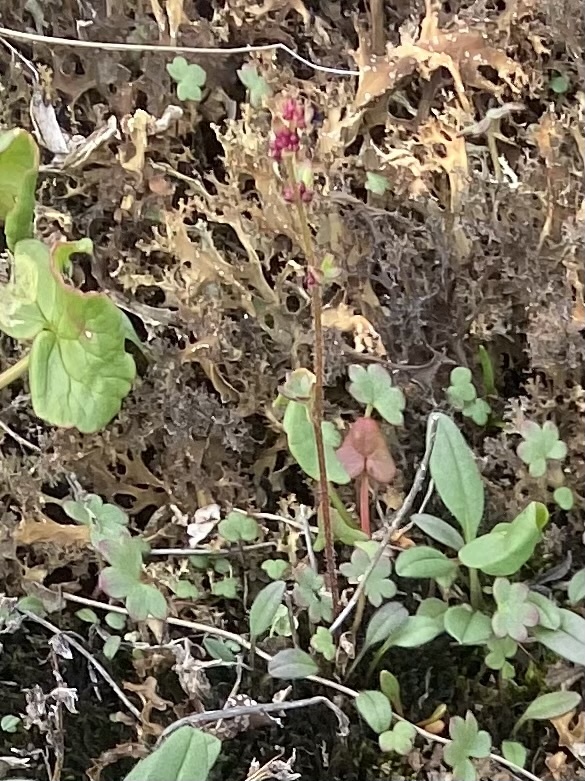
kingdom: Plantae
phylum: Tracheophyta
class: Magnoliopsida
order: Saxifragales
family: Saxifragaceae
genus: Saxifraga
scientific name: Saxifraga cernua
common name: Drooping saxifrage
